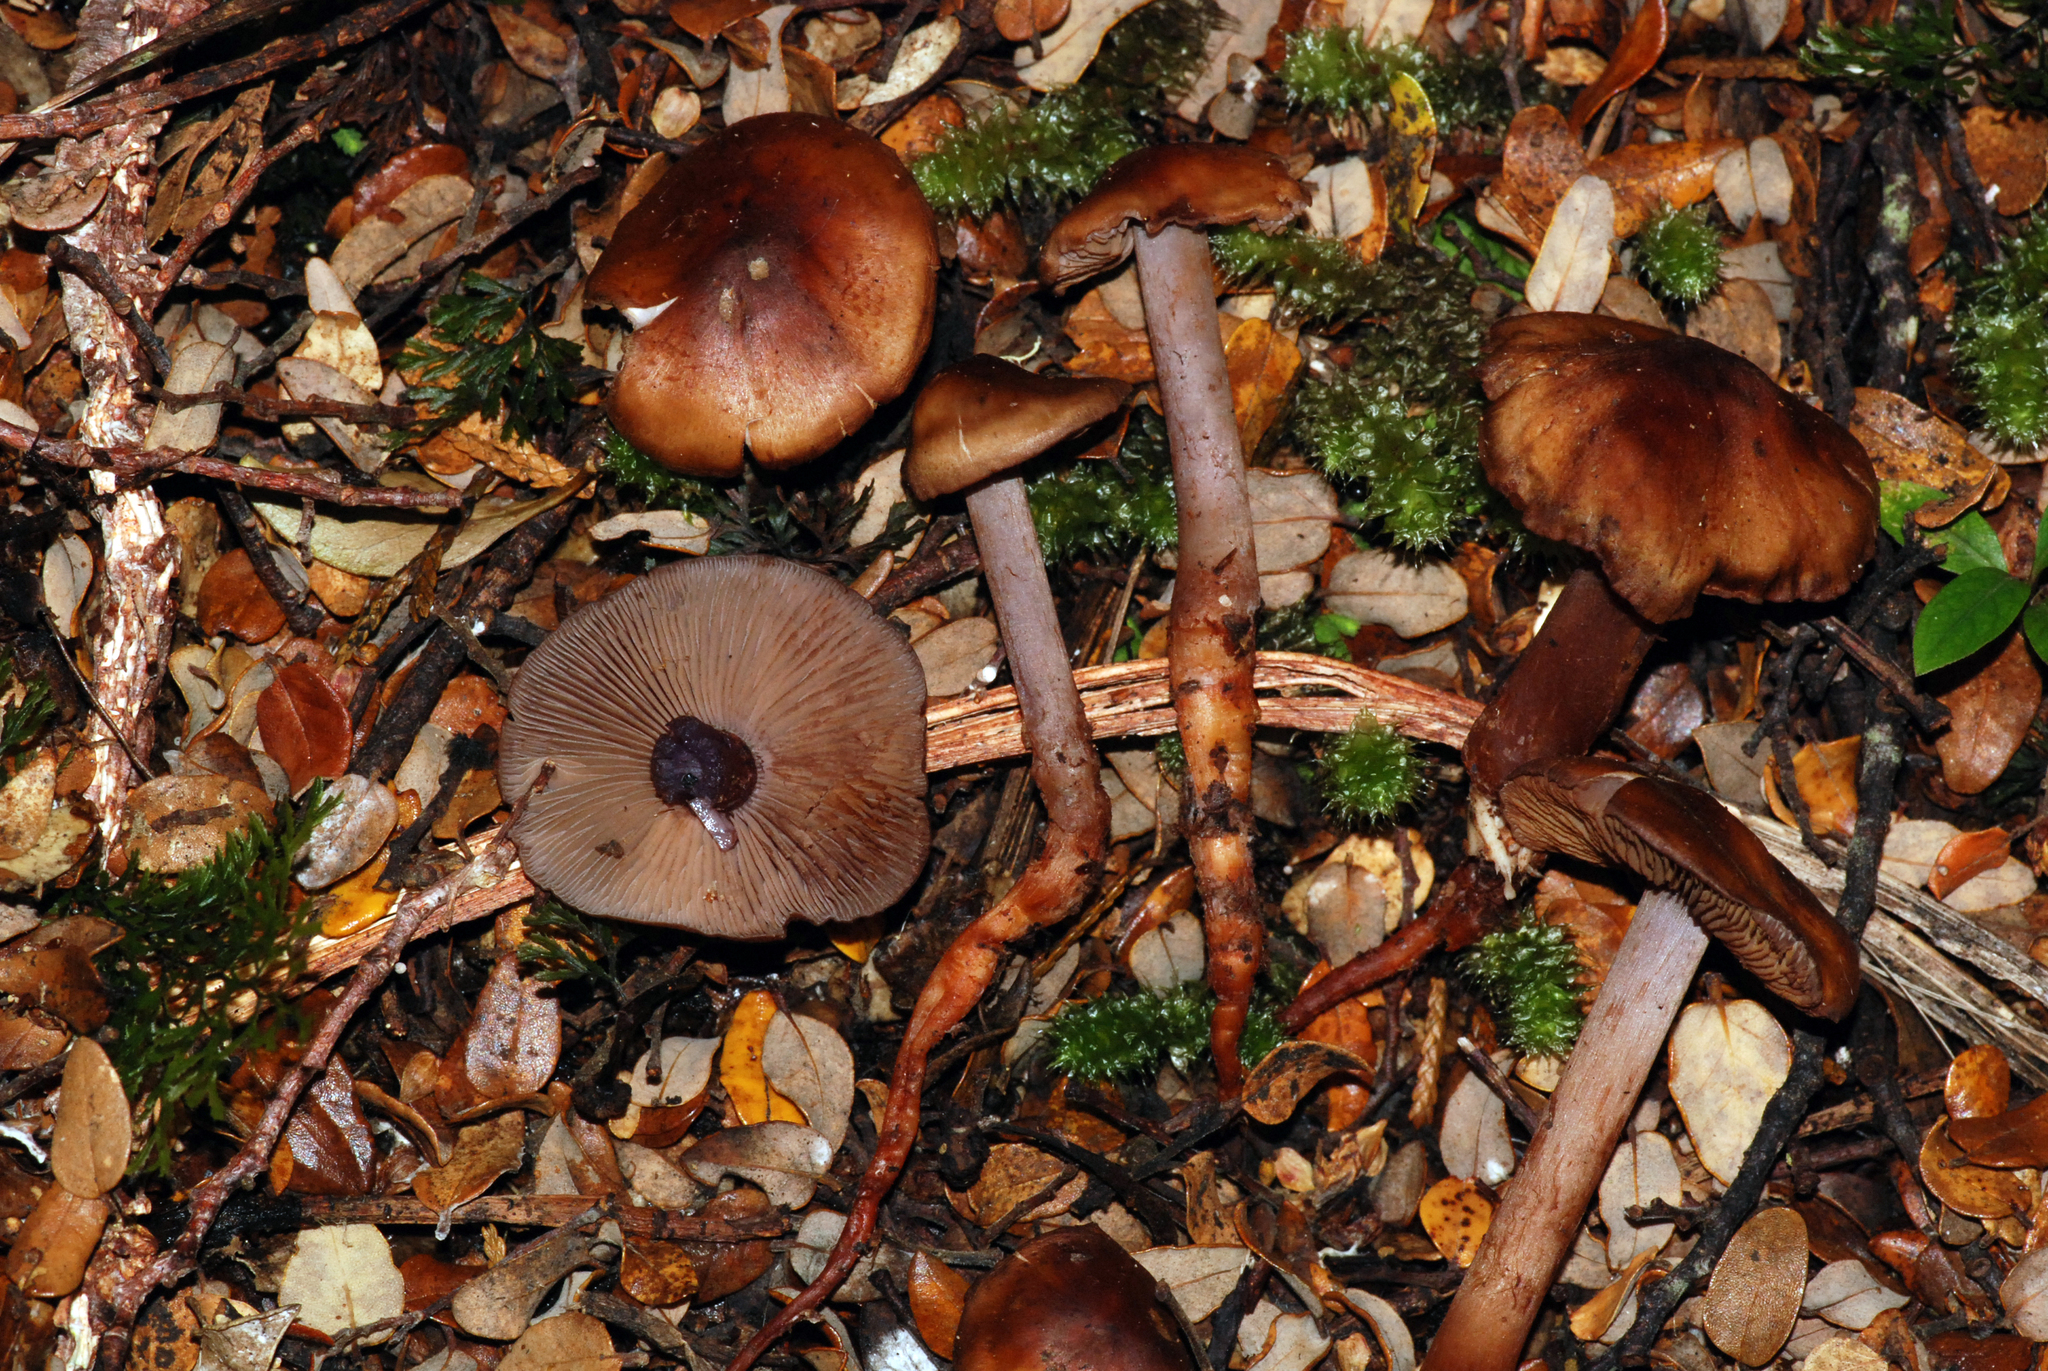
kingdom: Fungi
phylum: Basidiomycota
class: Agaricomycetes
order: Agaricales
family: Hymenogastraceae
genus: Phaeocollybia
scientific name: Phaeocollybia ratticauda
